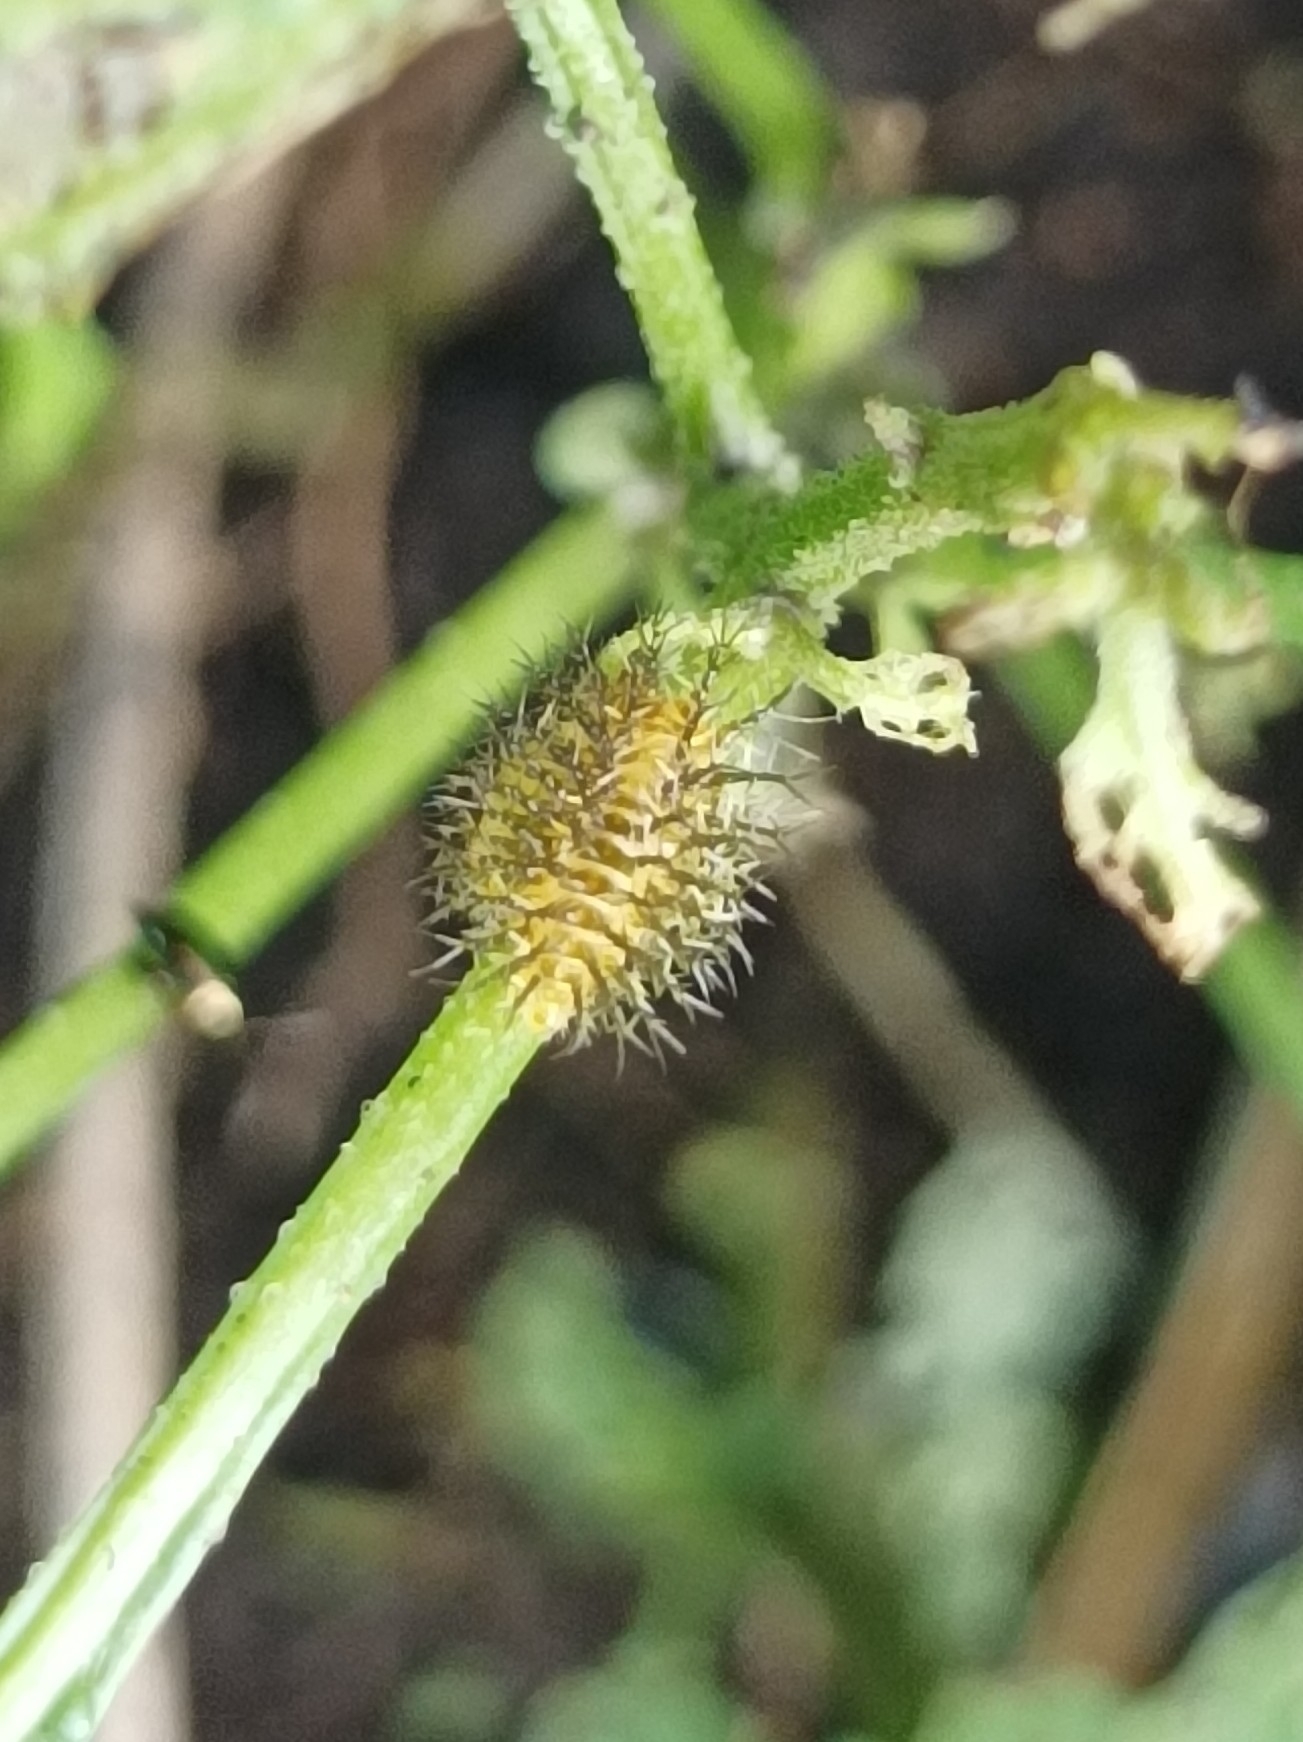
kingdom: Animalia
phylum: Arthropoda
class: Insecta
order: Coleoptera
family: Coccinellidae
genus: Henosepilachna
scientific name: Henosepilachna vigintioctopunctata
